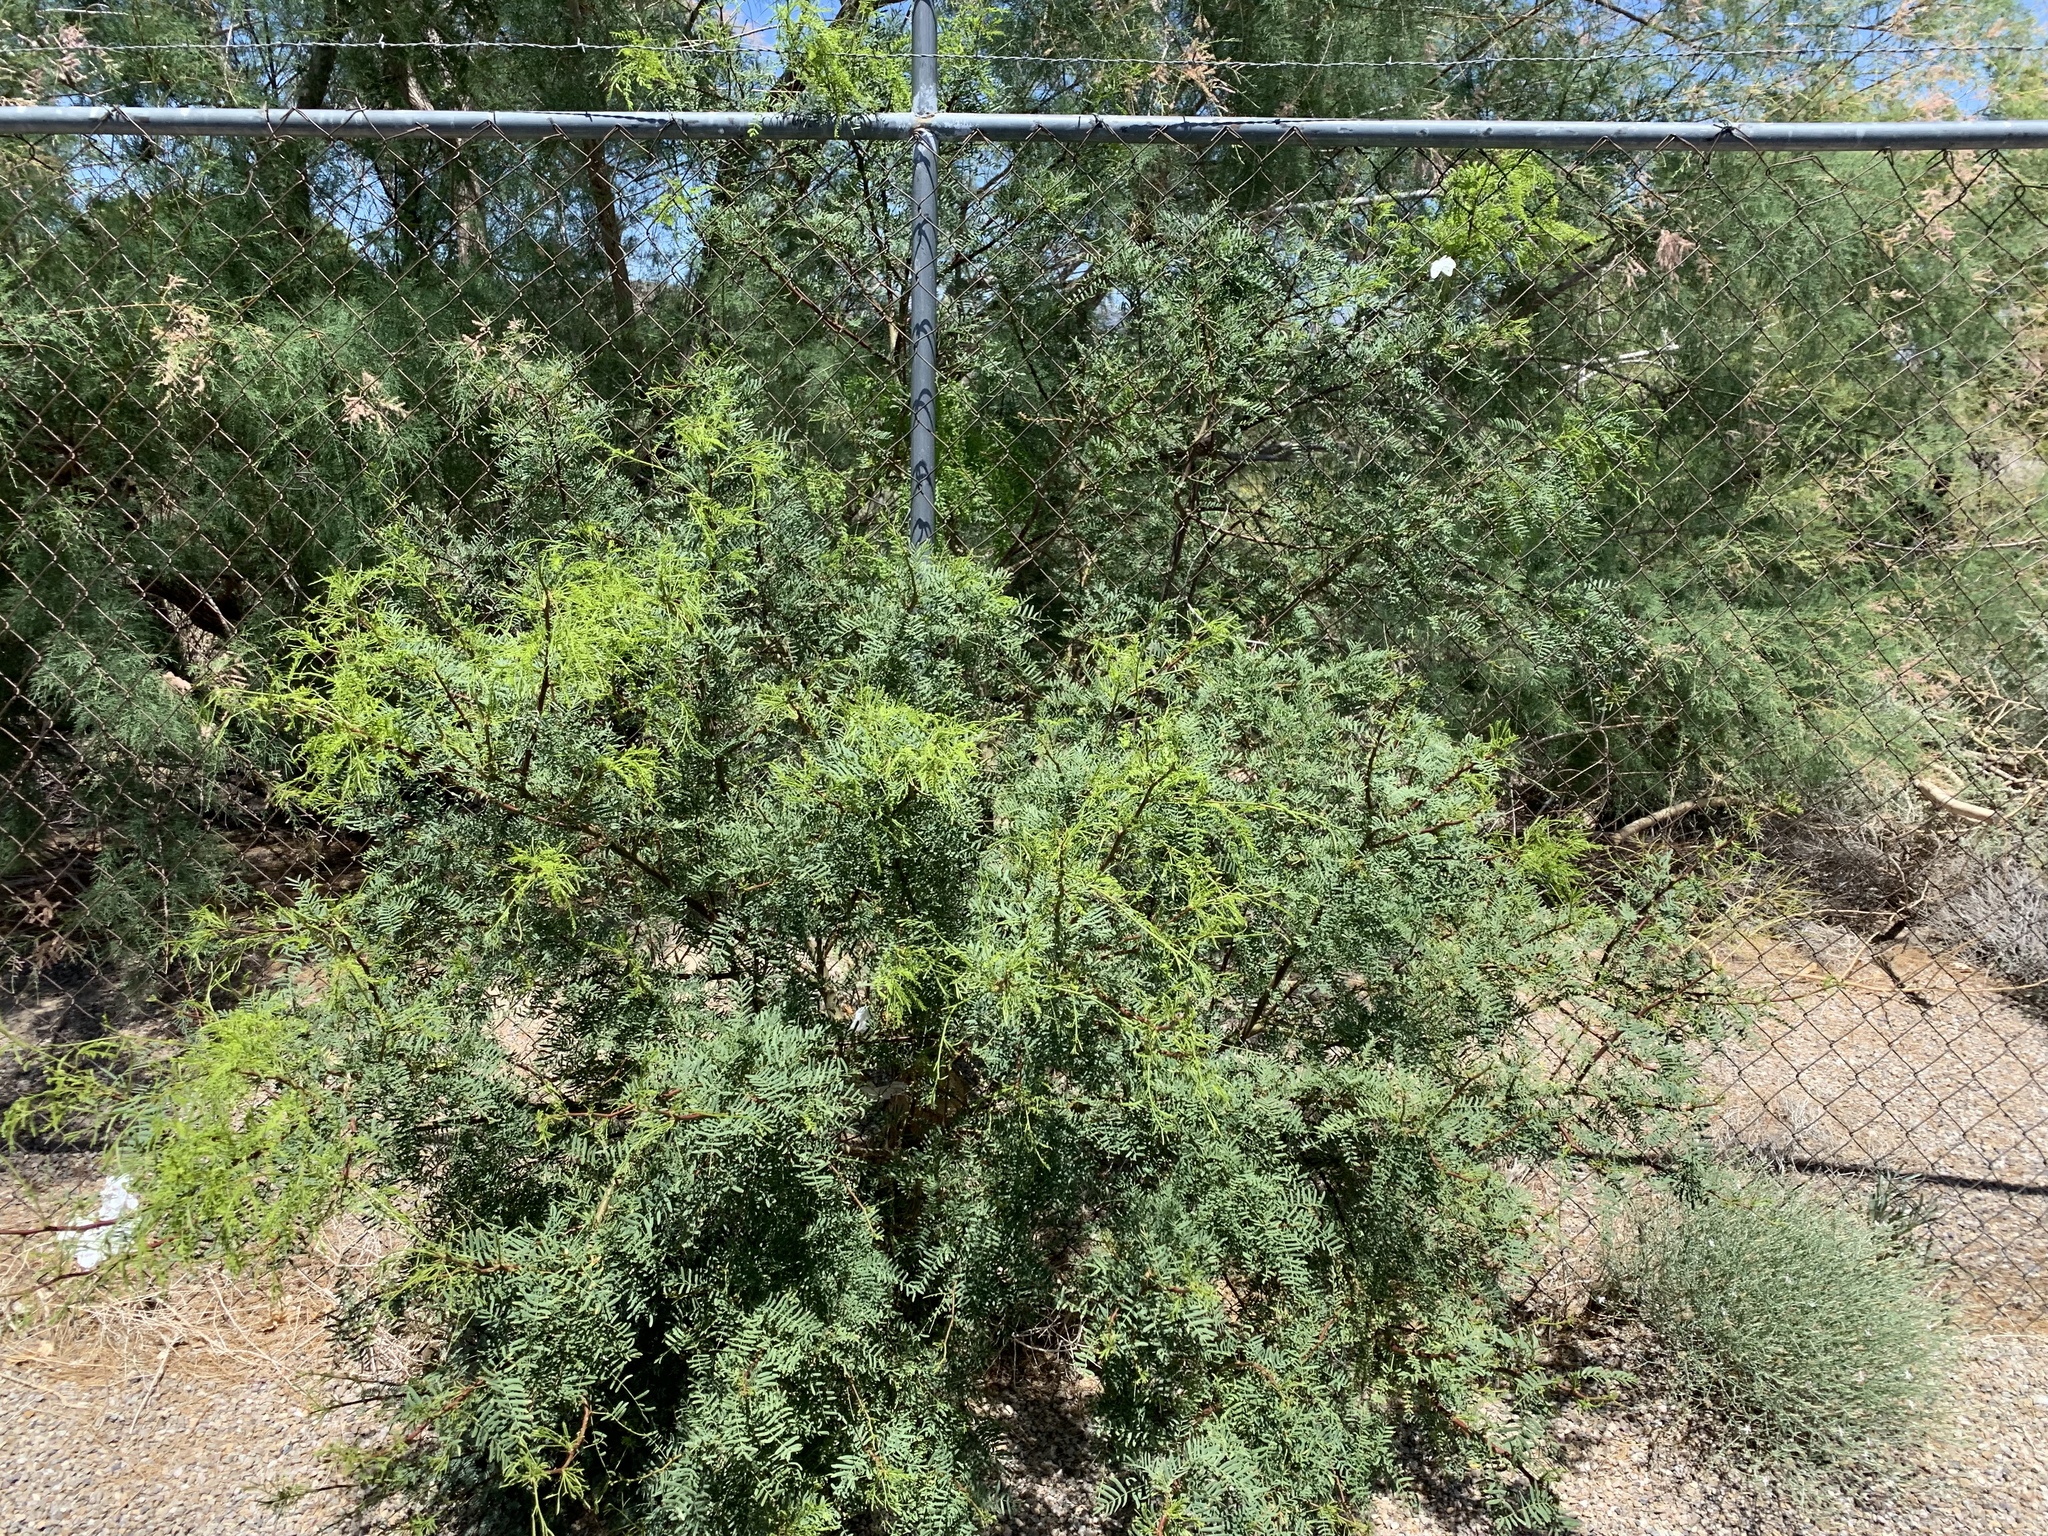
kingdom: Plantae
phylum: Tracheophyta
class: Magnoliopsida
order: Fabales
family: Fabaceae
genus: Prosopis
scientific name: Prosopis pubescens
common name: Screw-bean
